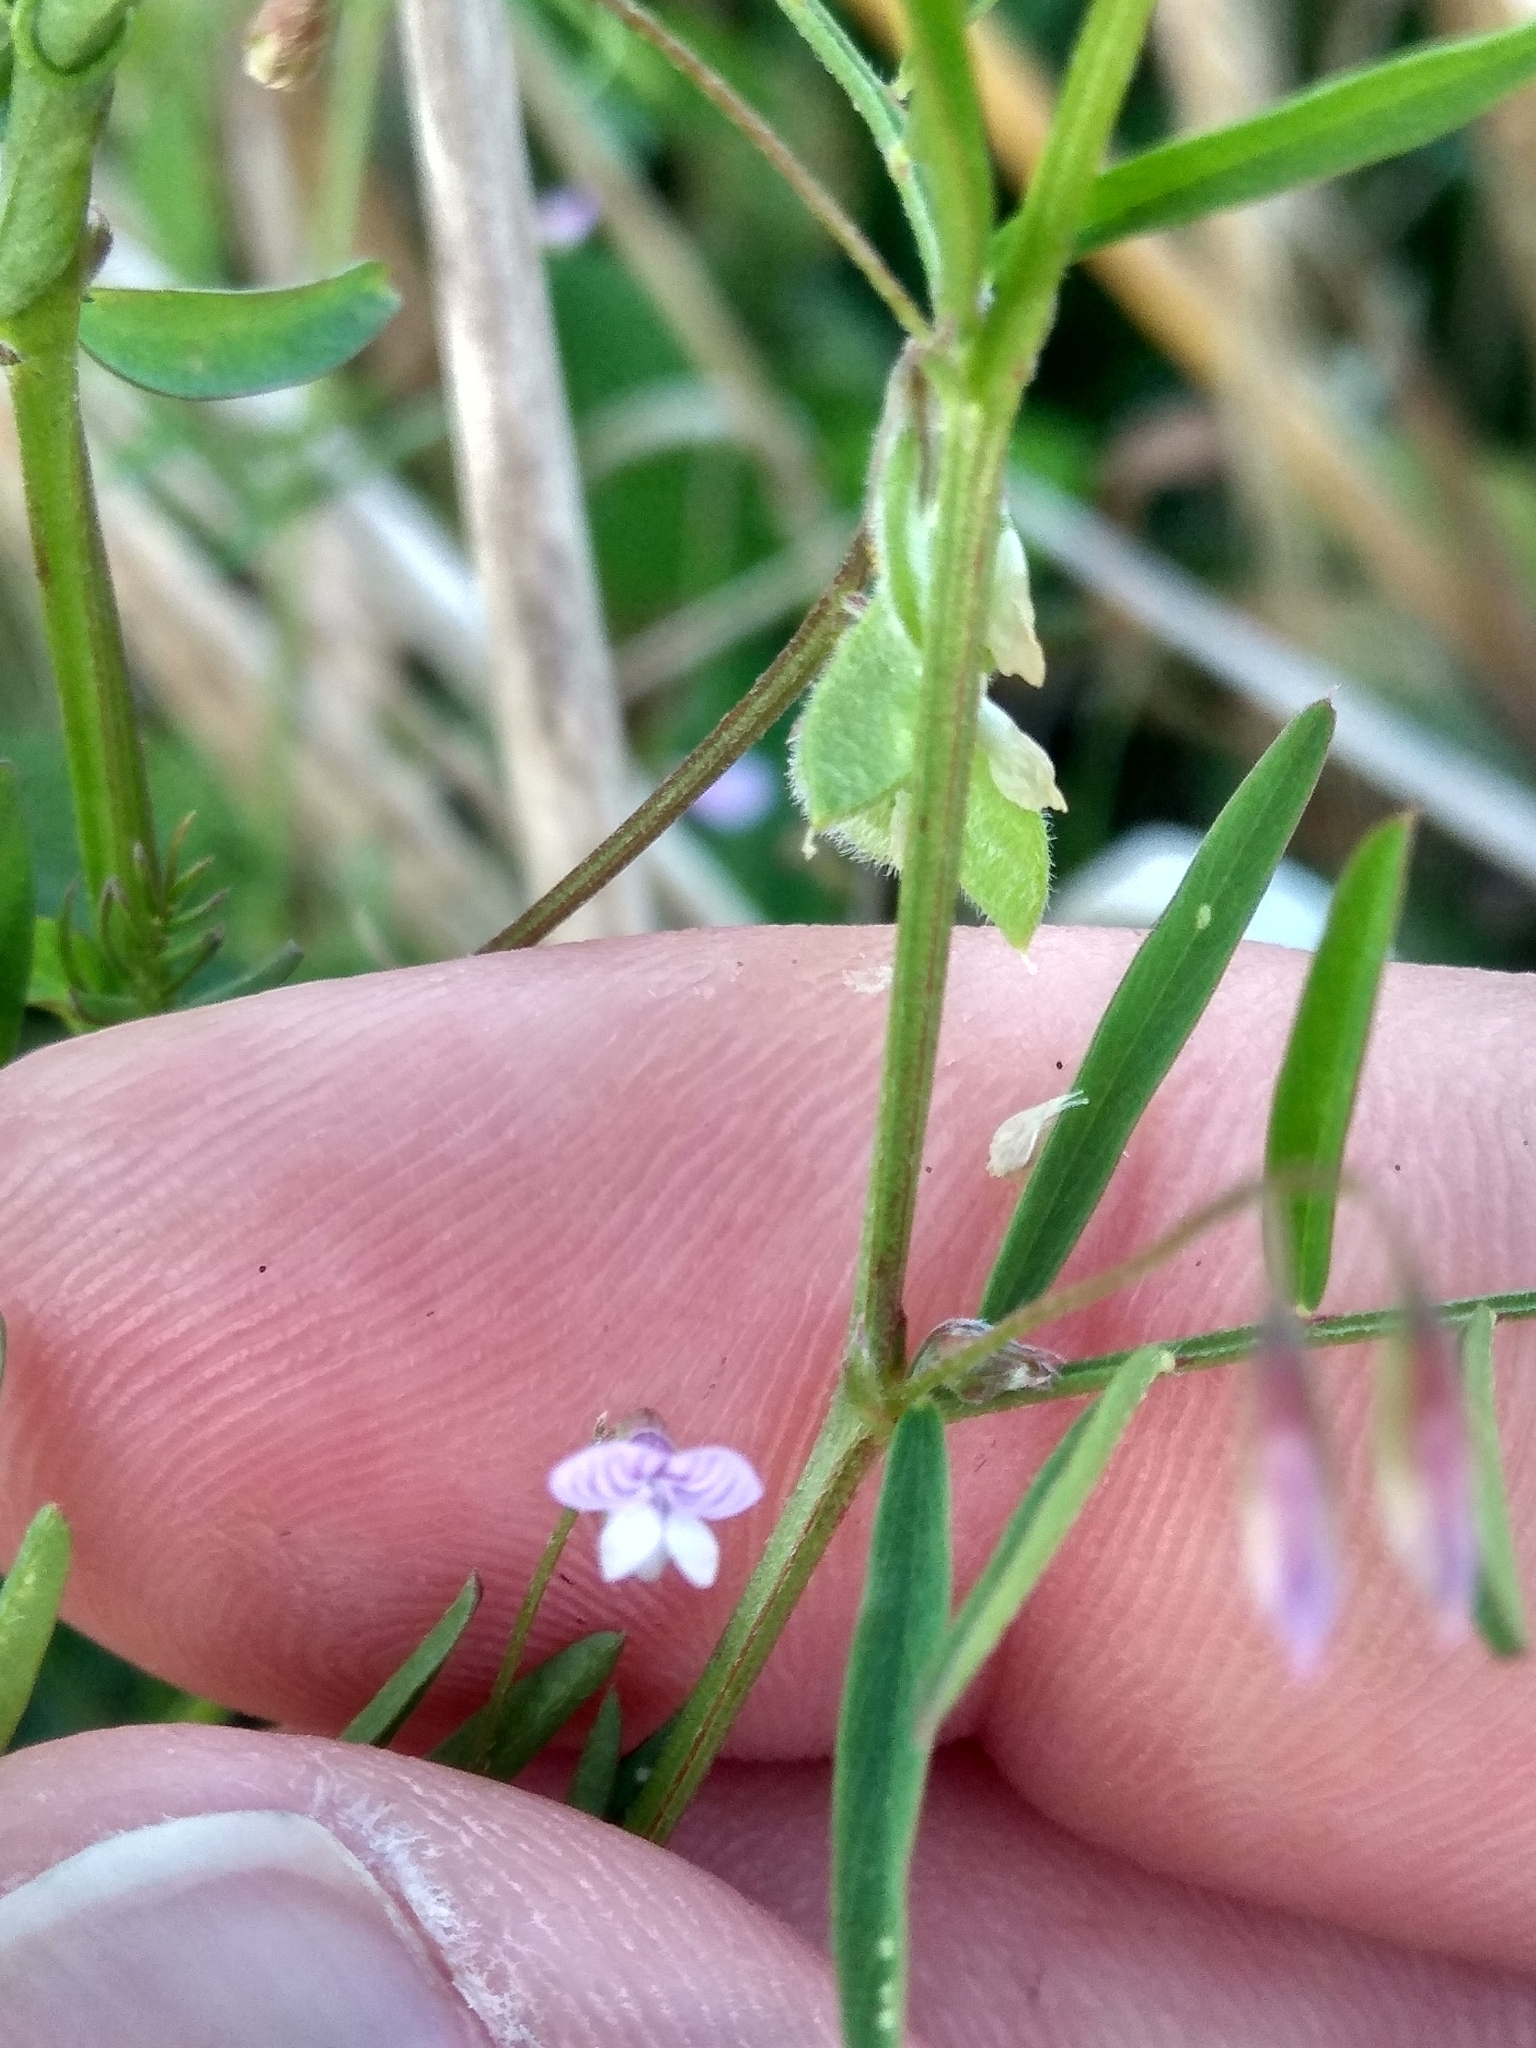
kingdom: Plantae
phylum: Tracheophyta
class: Magnoliopsida
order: Fabales
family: Fabaceae
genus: Vicia
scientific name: Vicia hirsuta
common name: Tiny vetch
